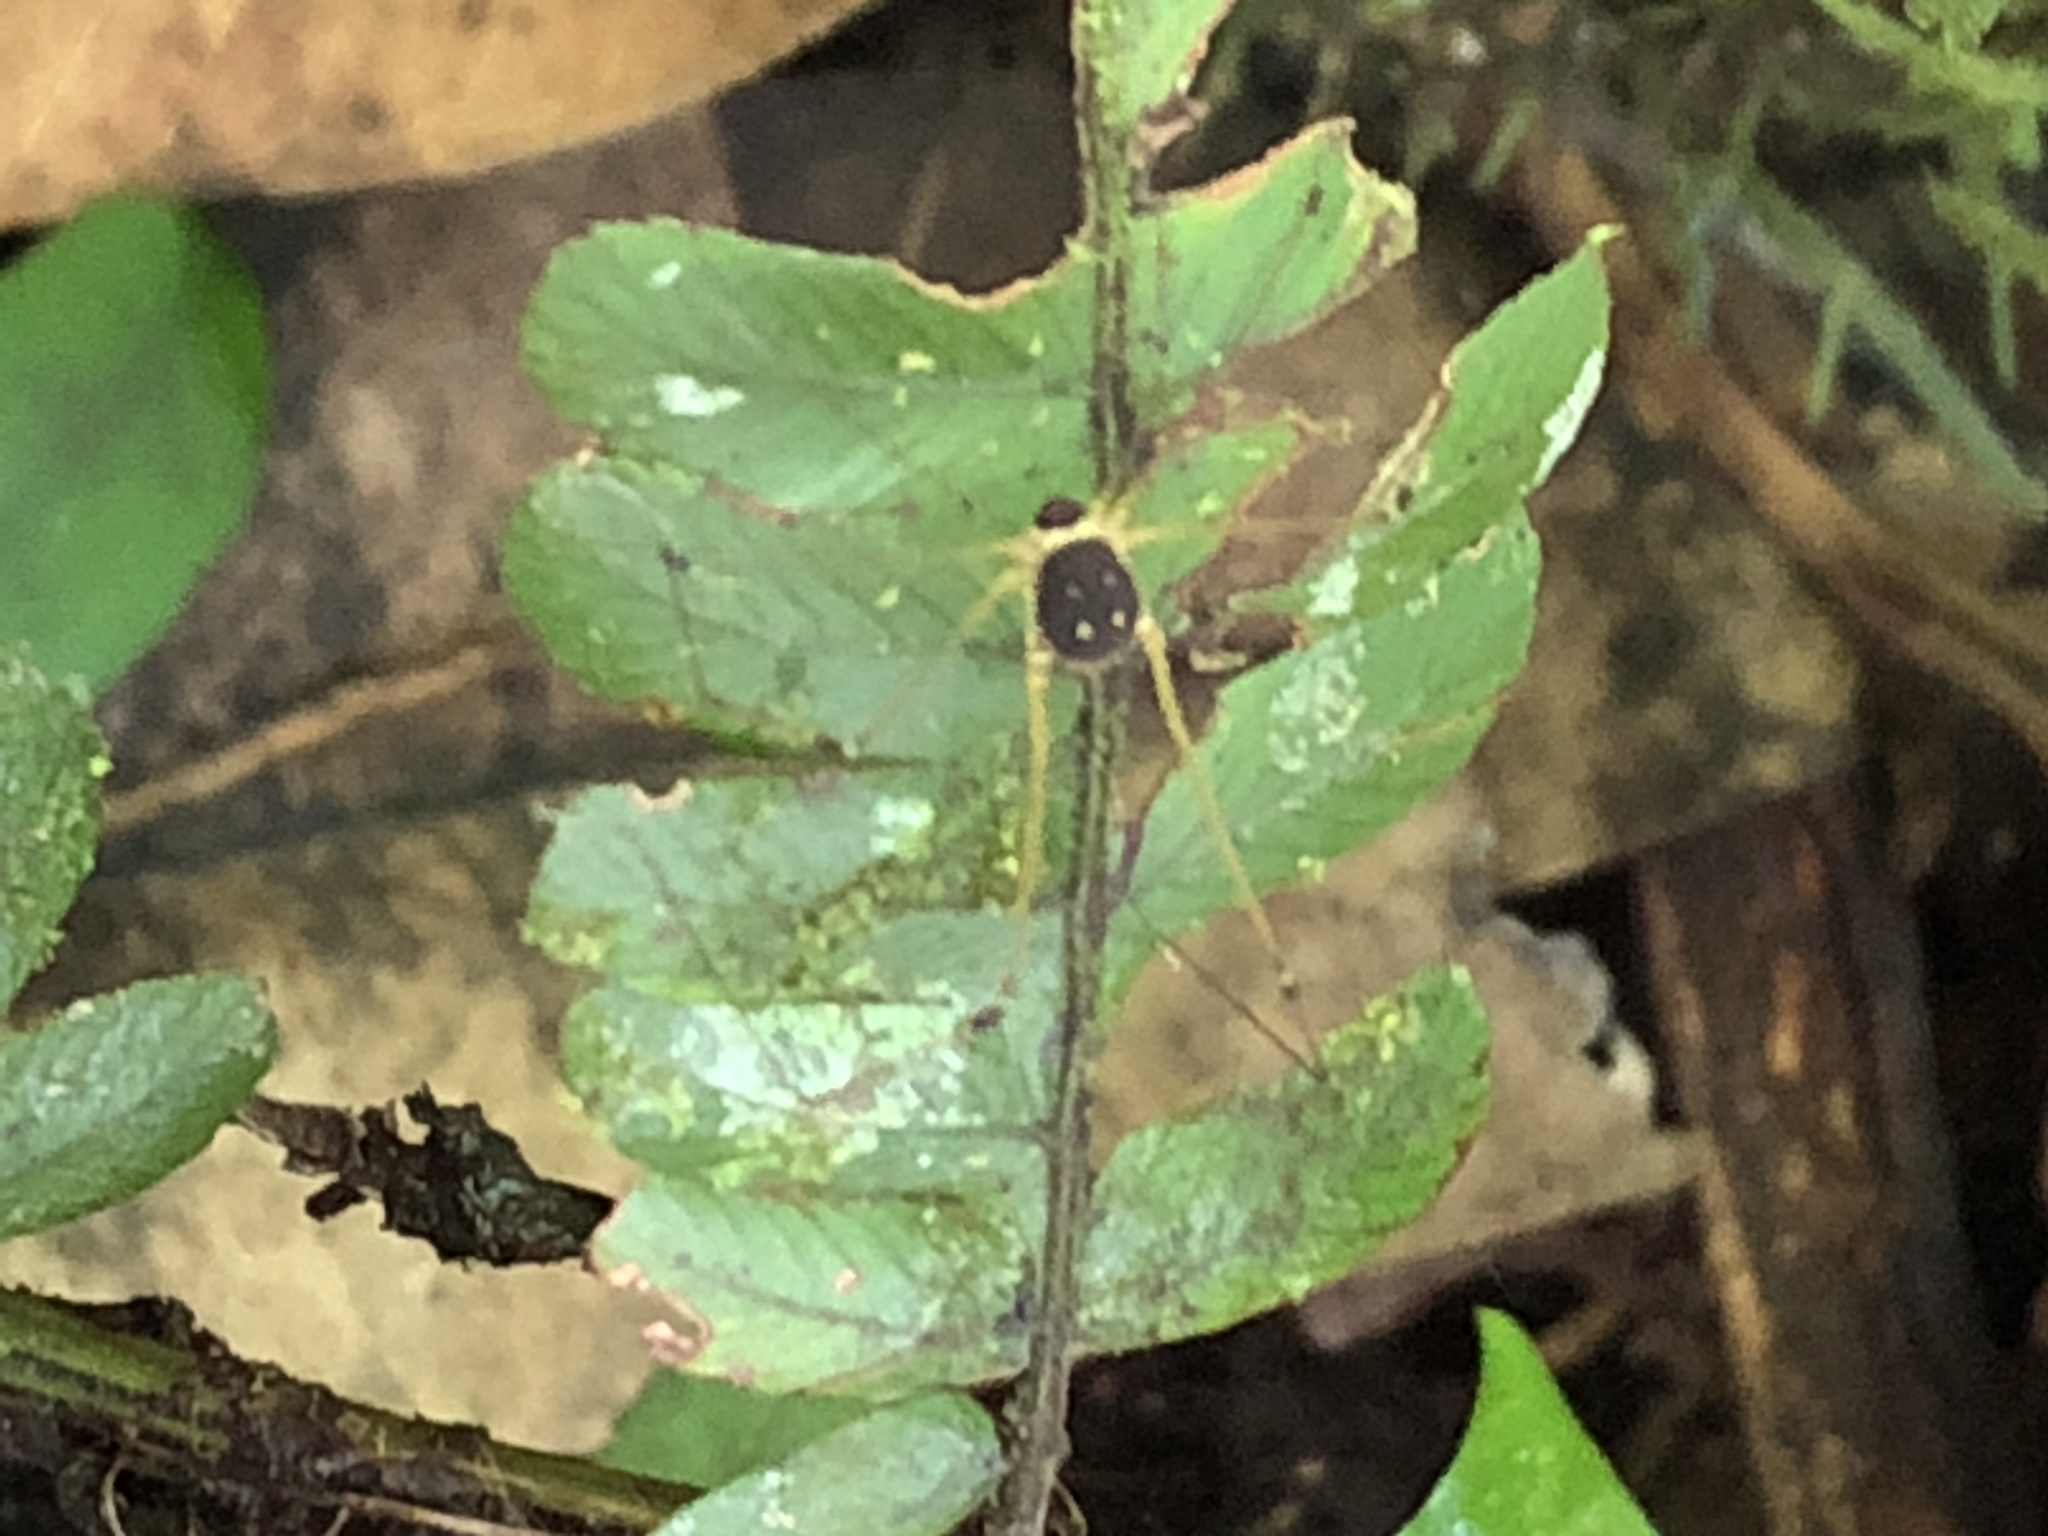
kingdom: Animalia
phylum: Arthropoda
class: Arachnida
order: Opiliones
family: Cosmetidae
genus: Protus
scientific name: Protus bolivari
